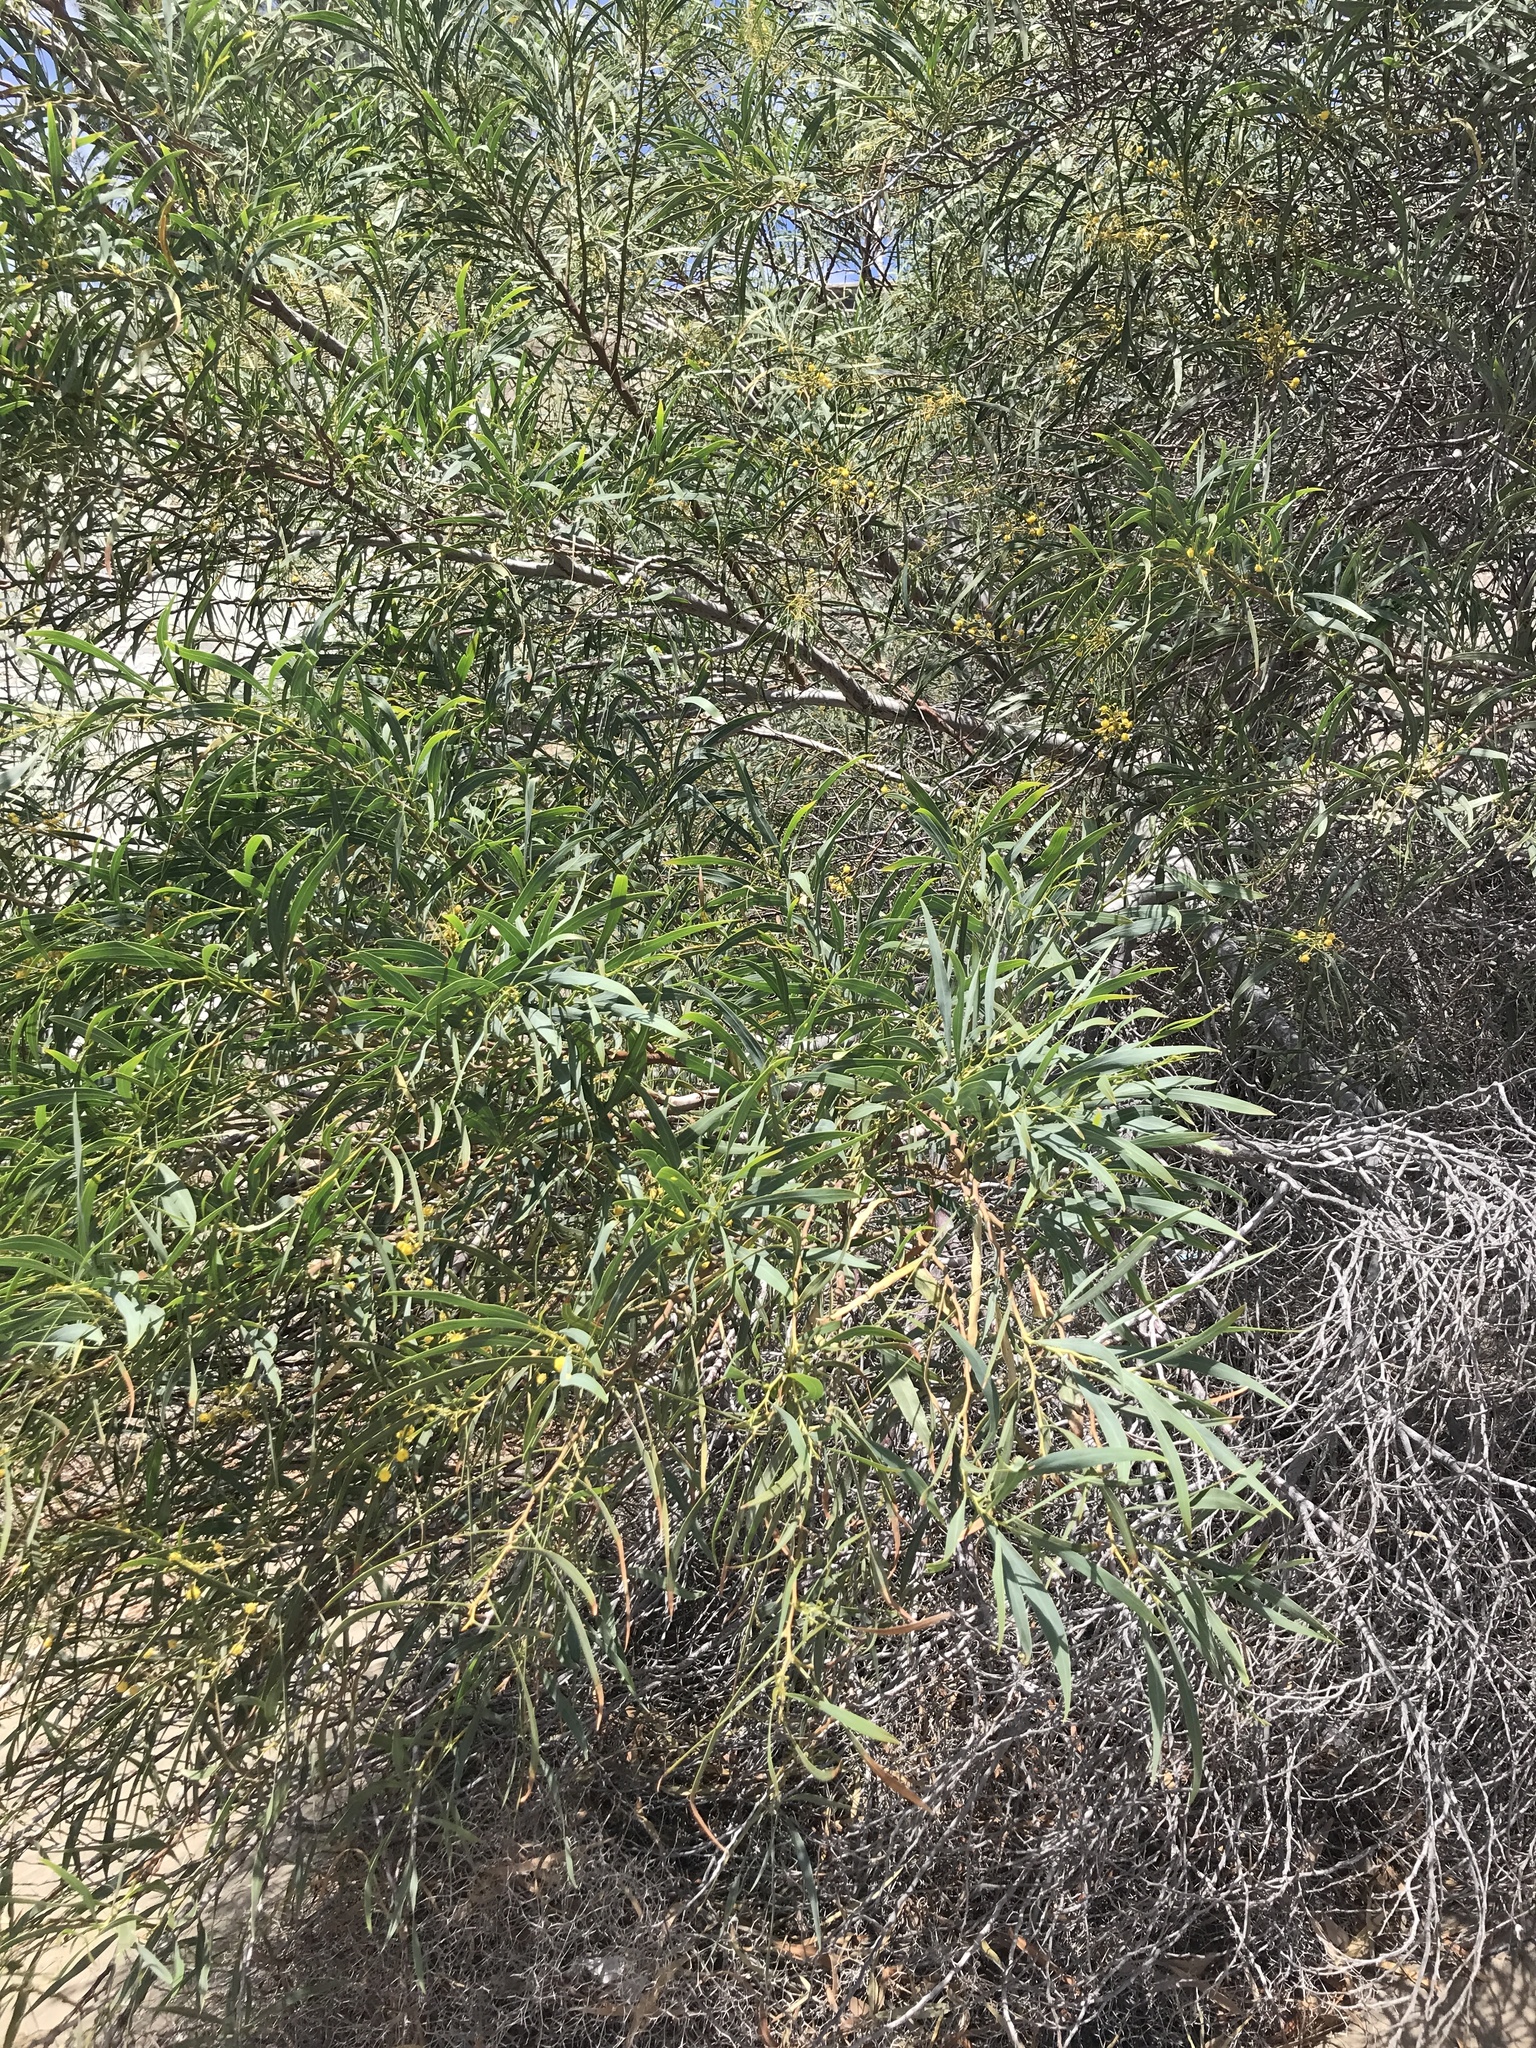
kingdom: Plantae
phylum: Tracheophyta
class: Magnoliopsida
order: Fabales
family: Fabaceae
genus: Acacia
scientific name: Acacia saligna
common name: Orange wattle
